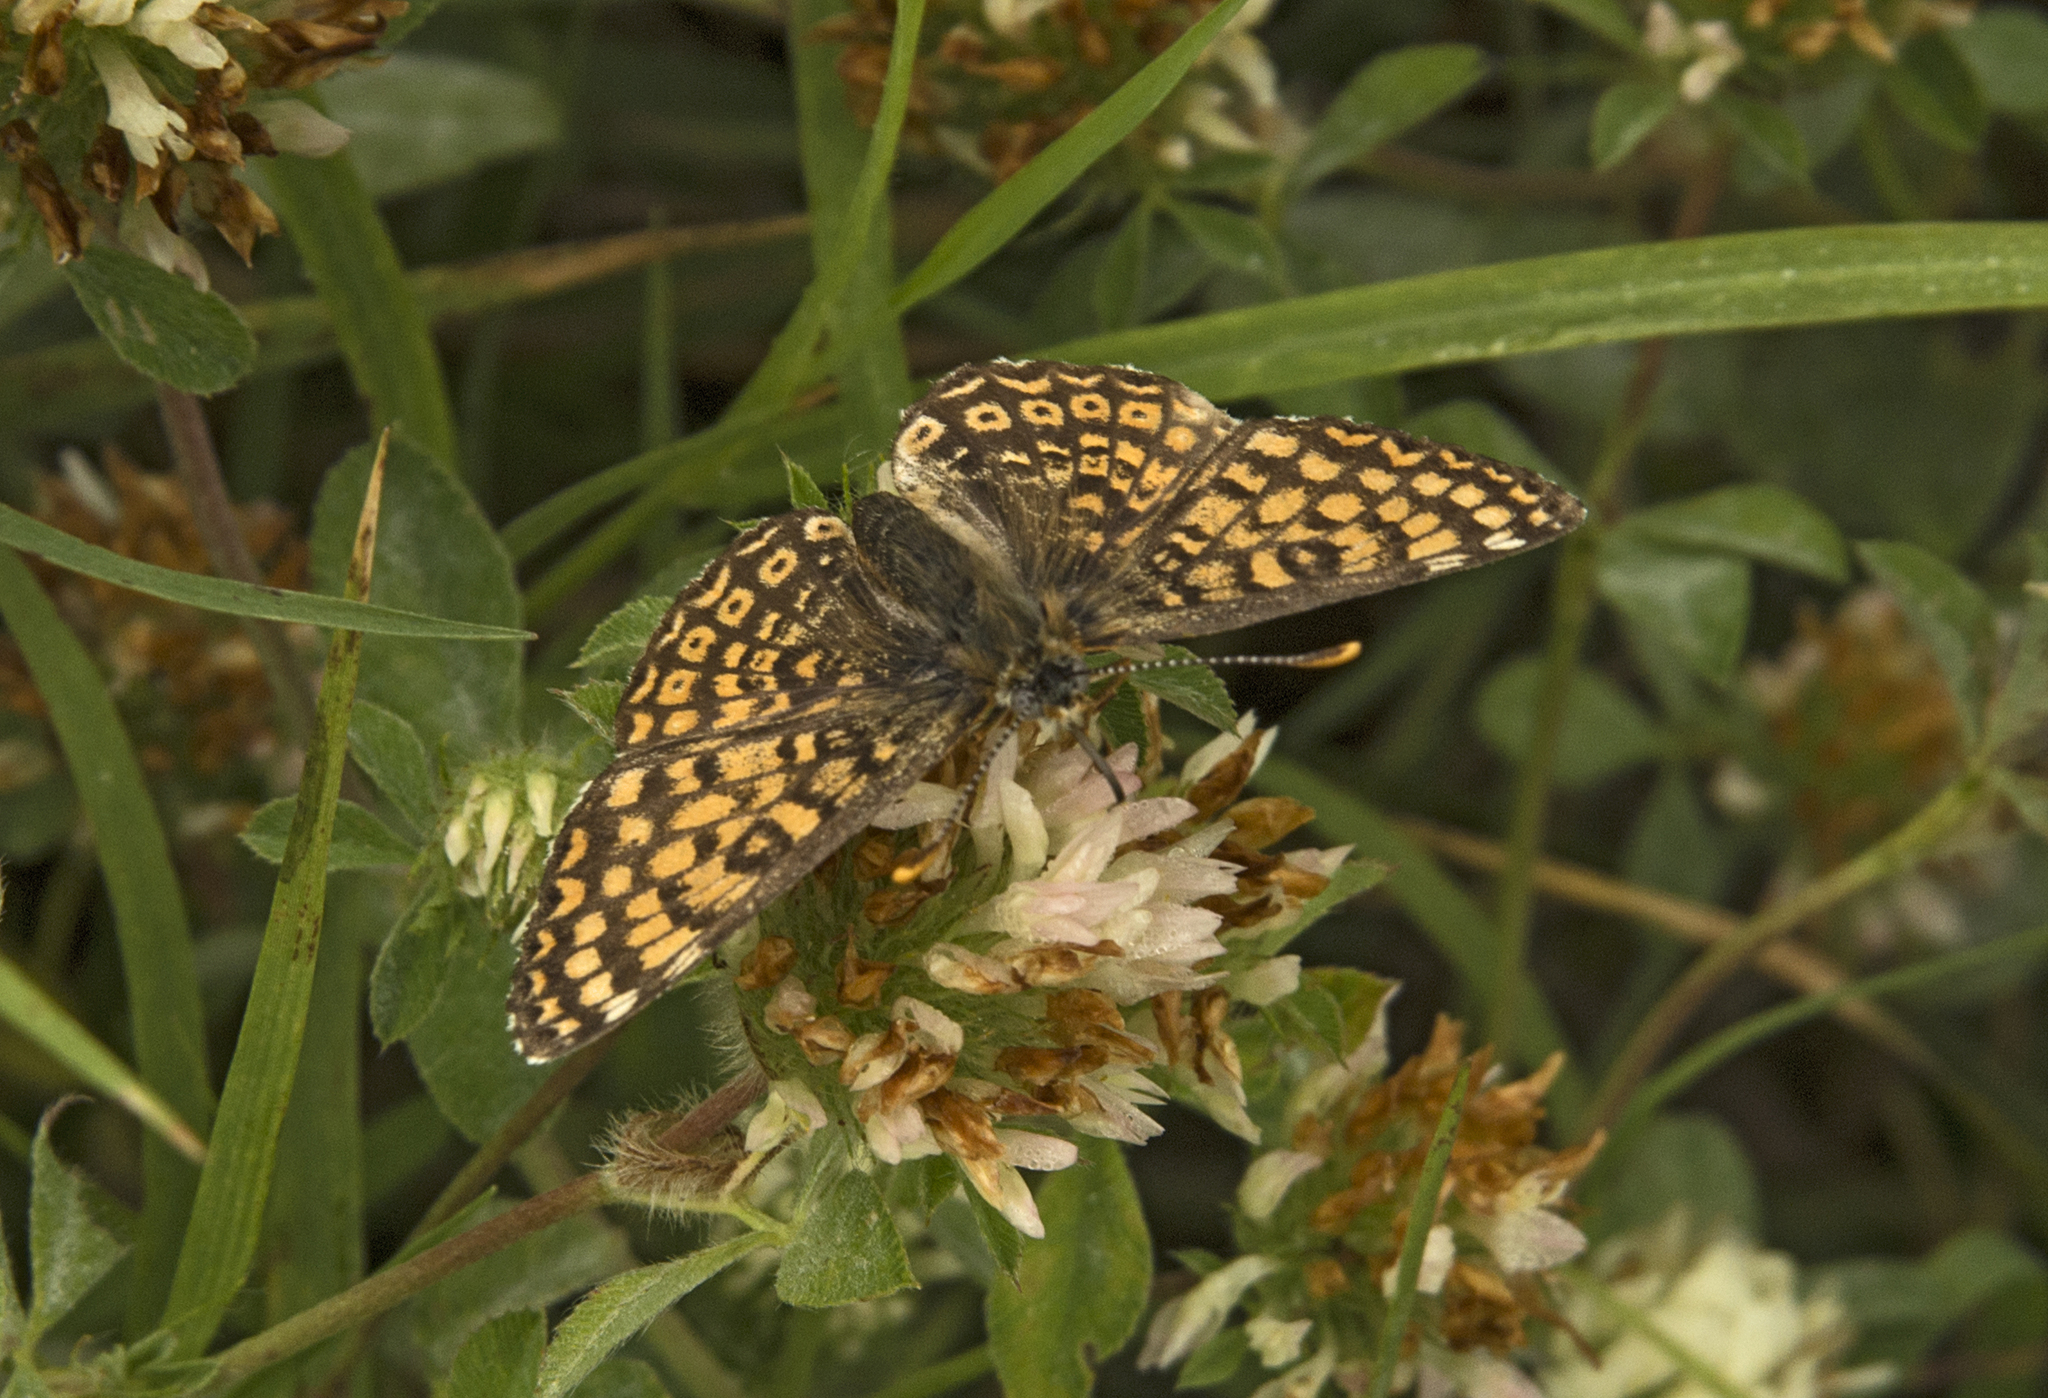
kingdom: Animalia
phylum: Arthropoda
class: Insecta
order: Lepidoptera
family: Nymphalidae
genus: Melitaea
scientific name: Melitaea cinxia
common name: Glanville fritillary
